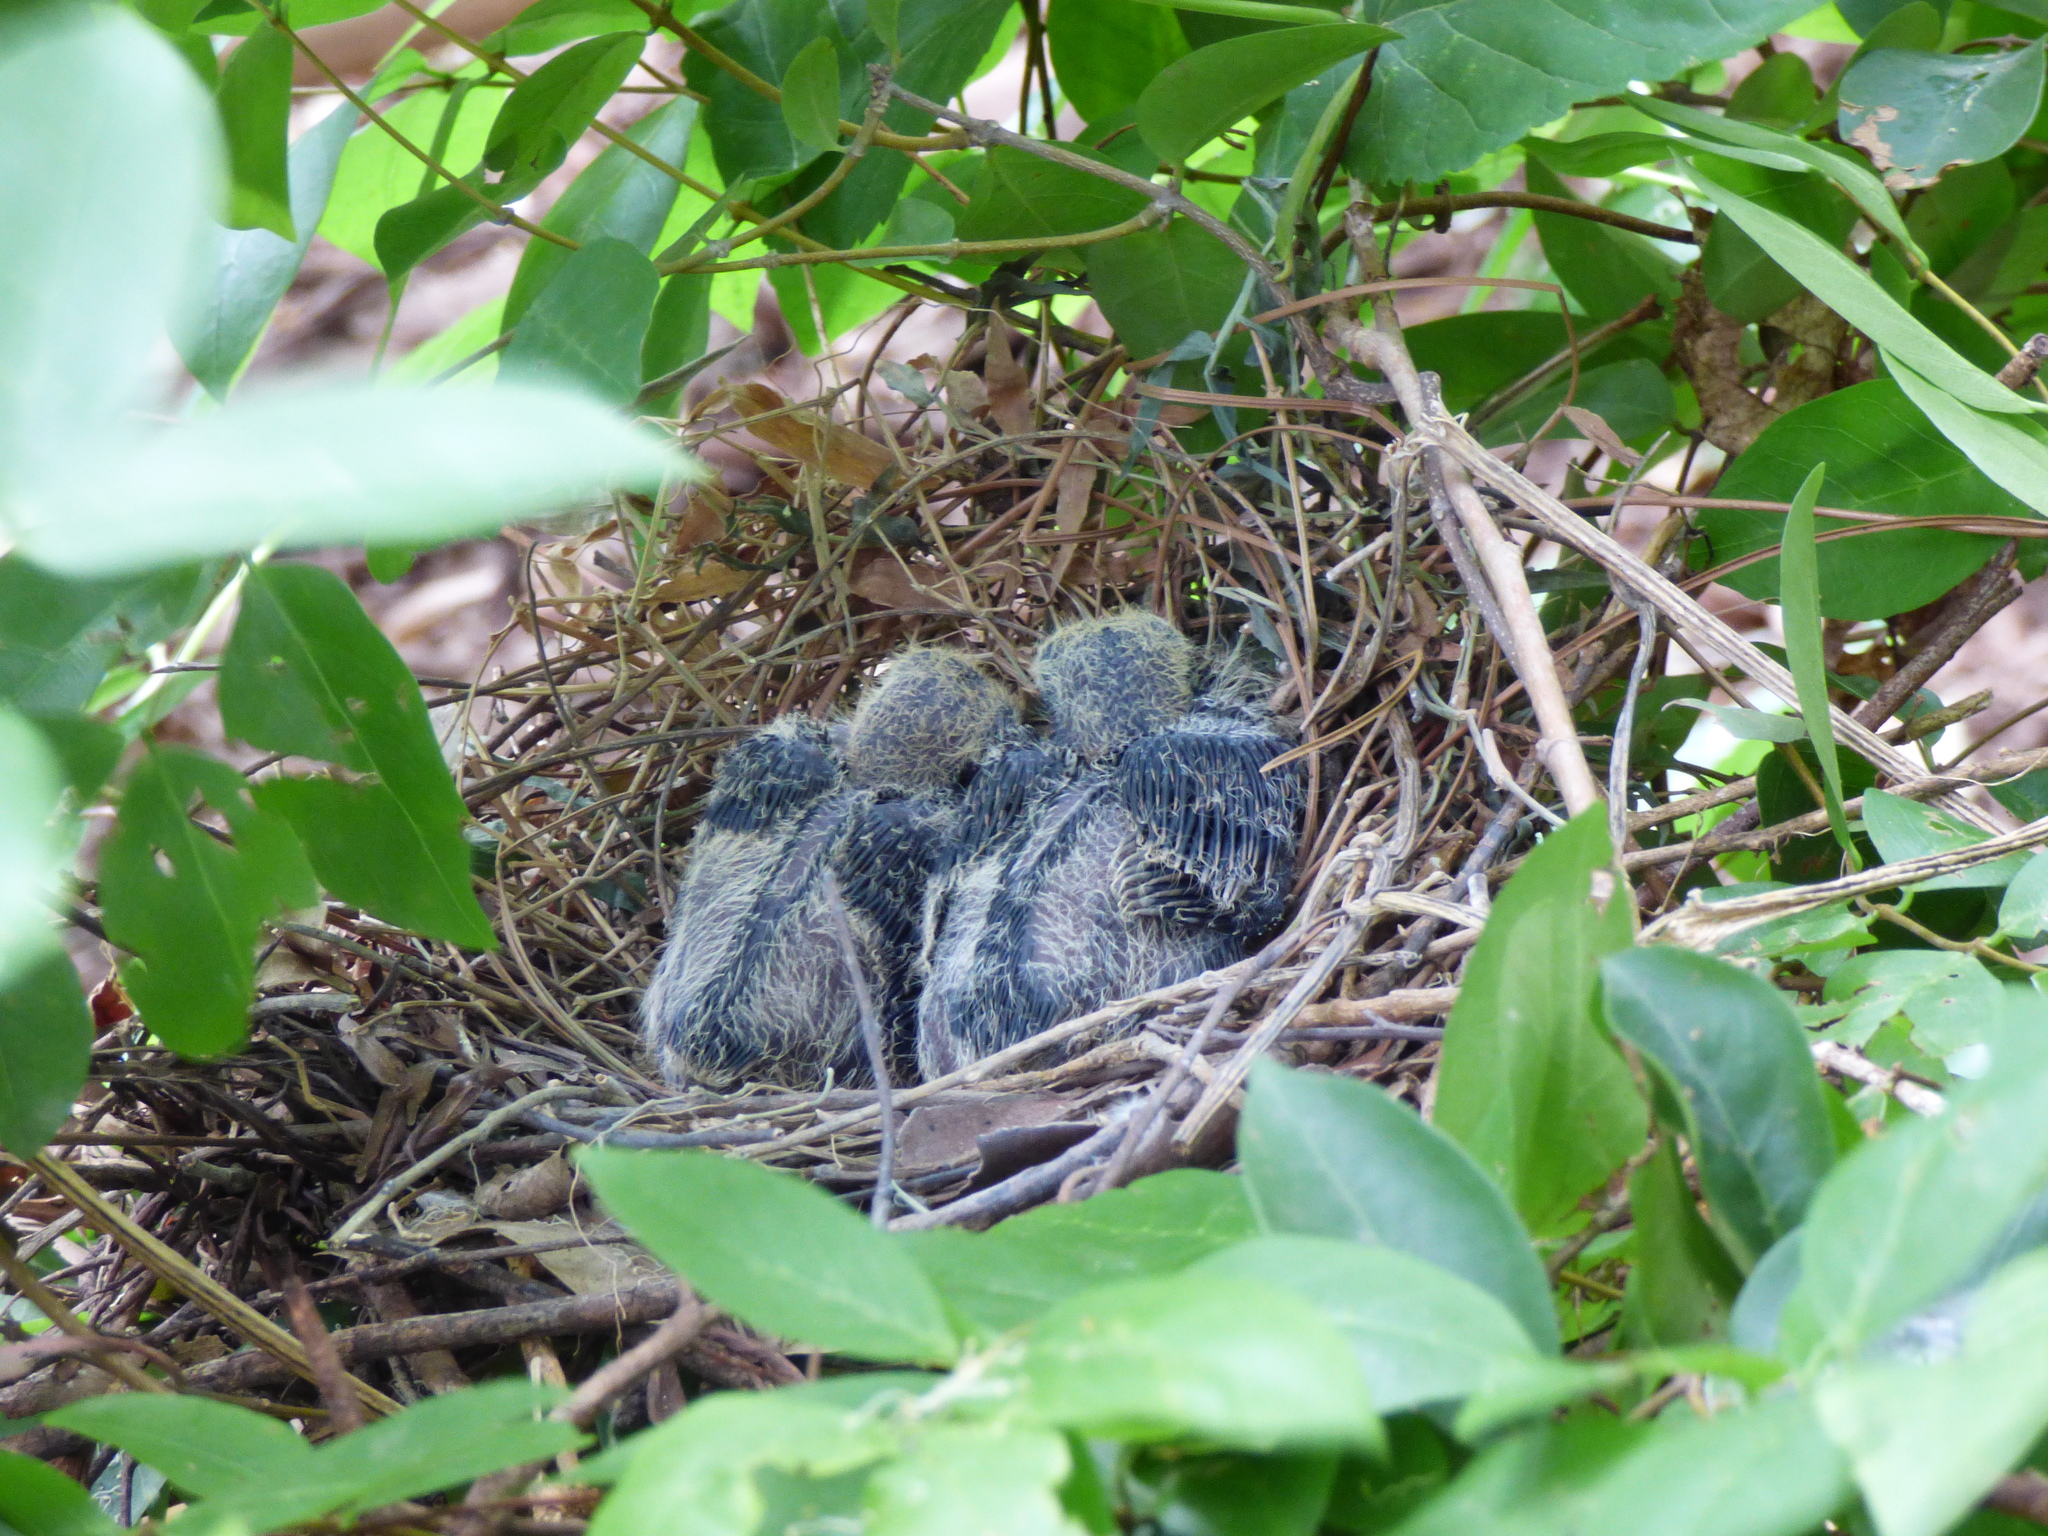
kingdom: Animalia
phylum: Chordata
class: Aves
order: Columbiformes
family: Columbidae
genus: Zenaida
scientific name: Zenaida auriculata
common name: Eared dove
